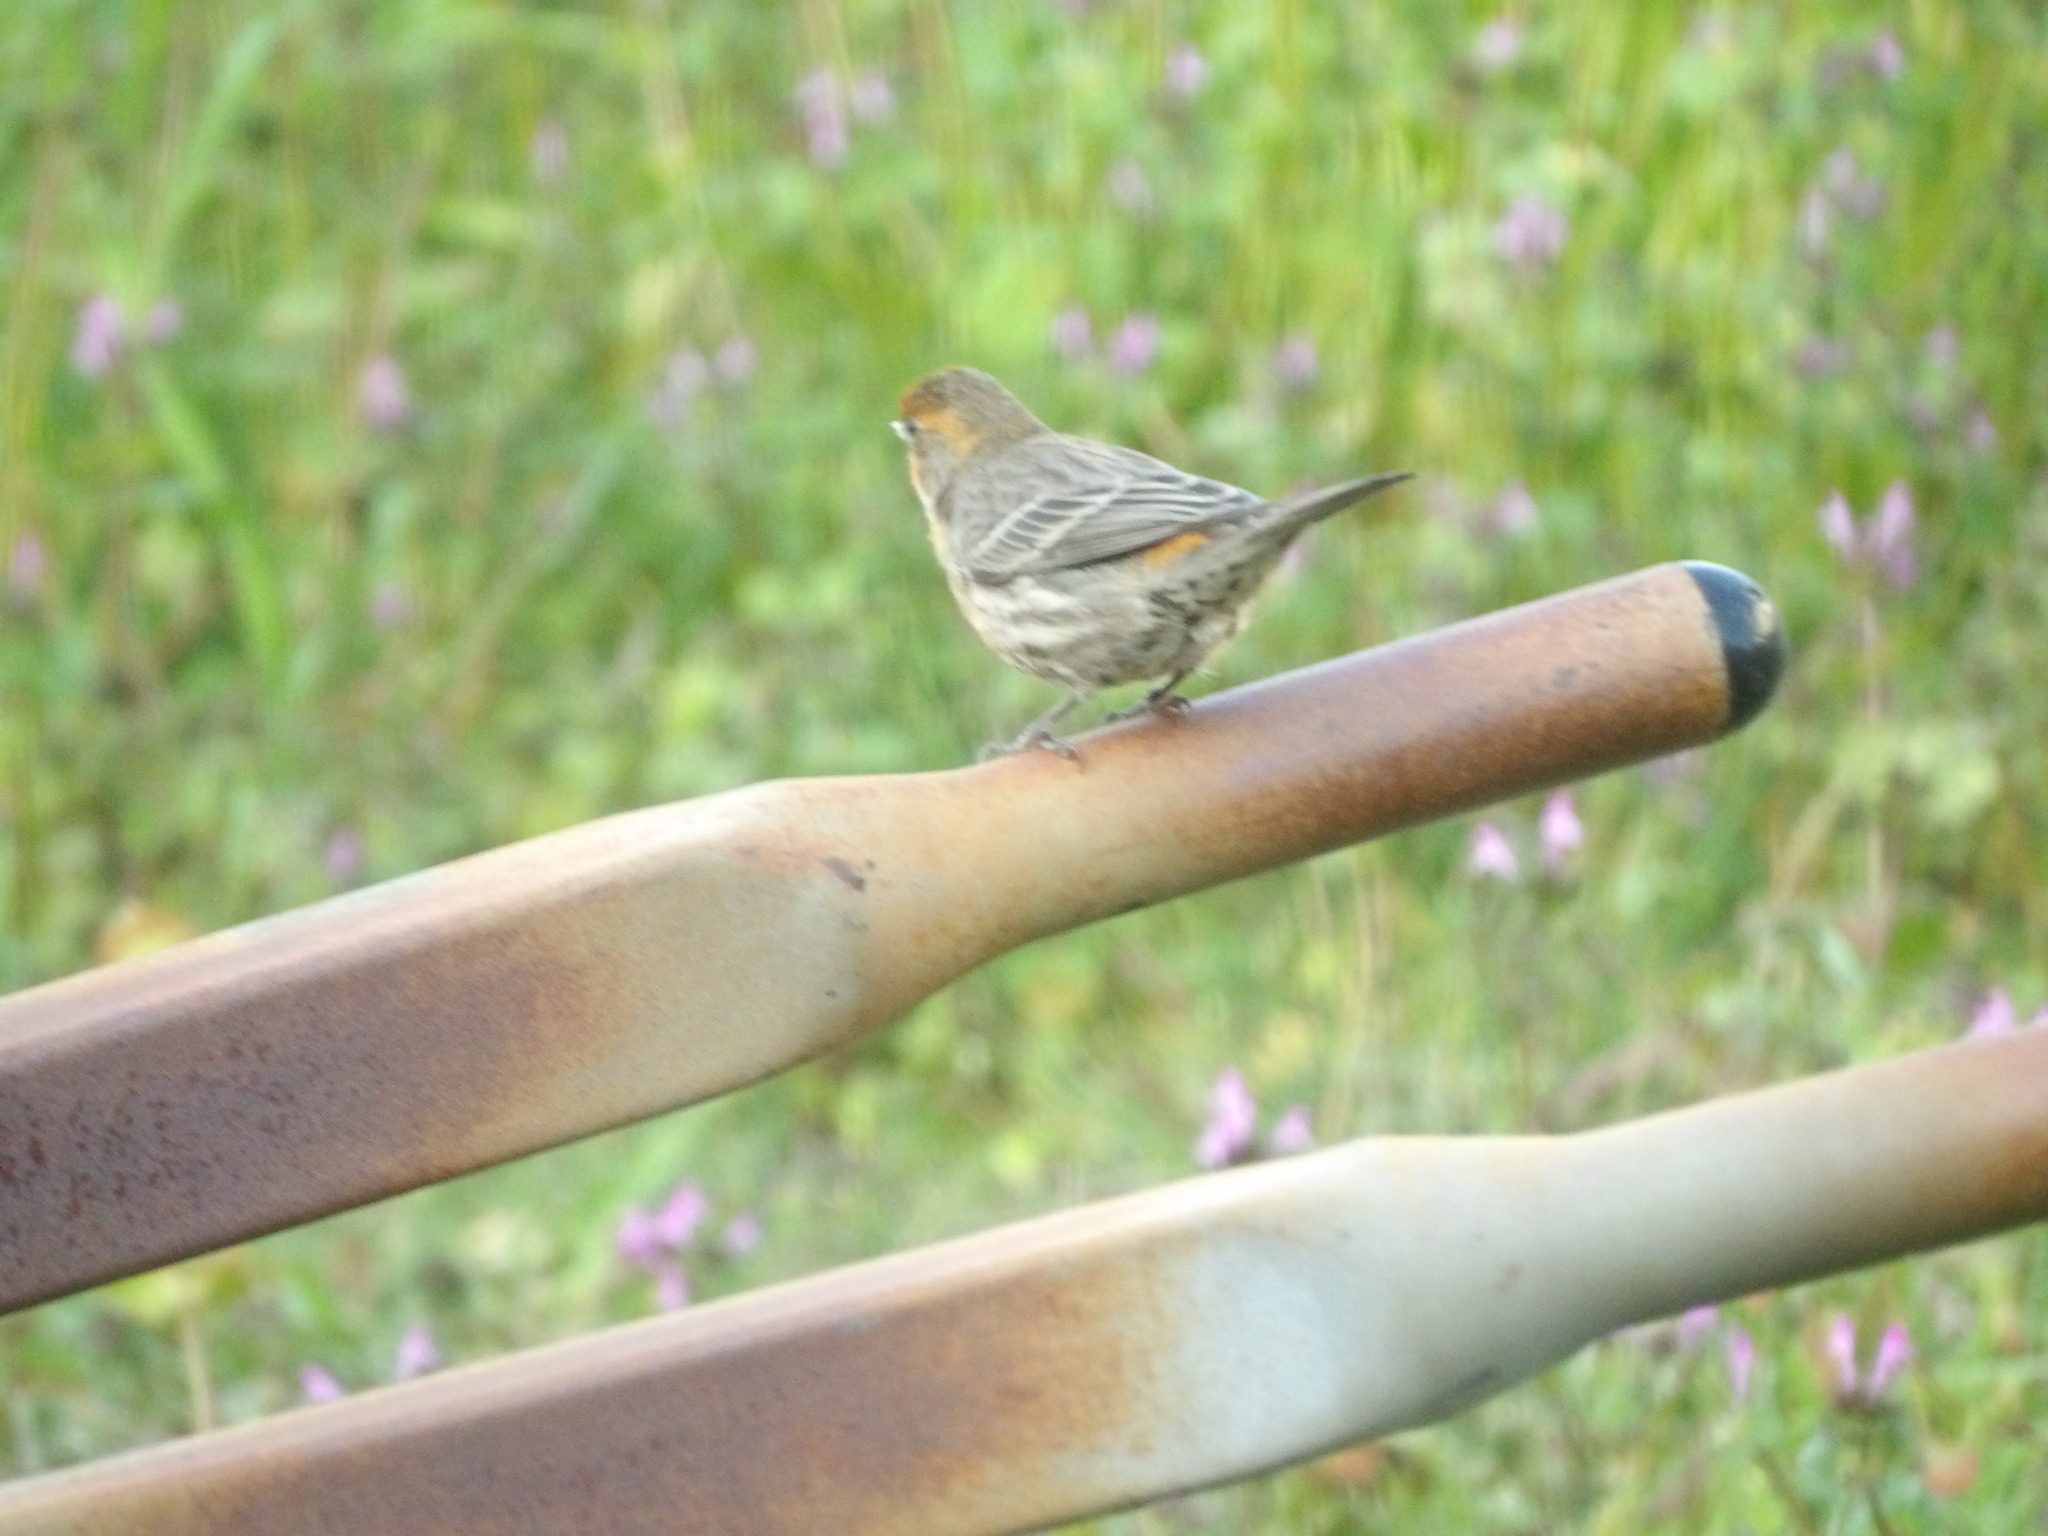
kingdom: Animalia
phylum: Chordata
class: Aves
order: Passeriformes
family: Fringillidae
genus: Haemorhous
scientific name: Haemorhous mexicanus
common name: House finch
